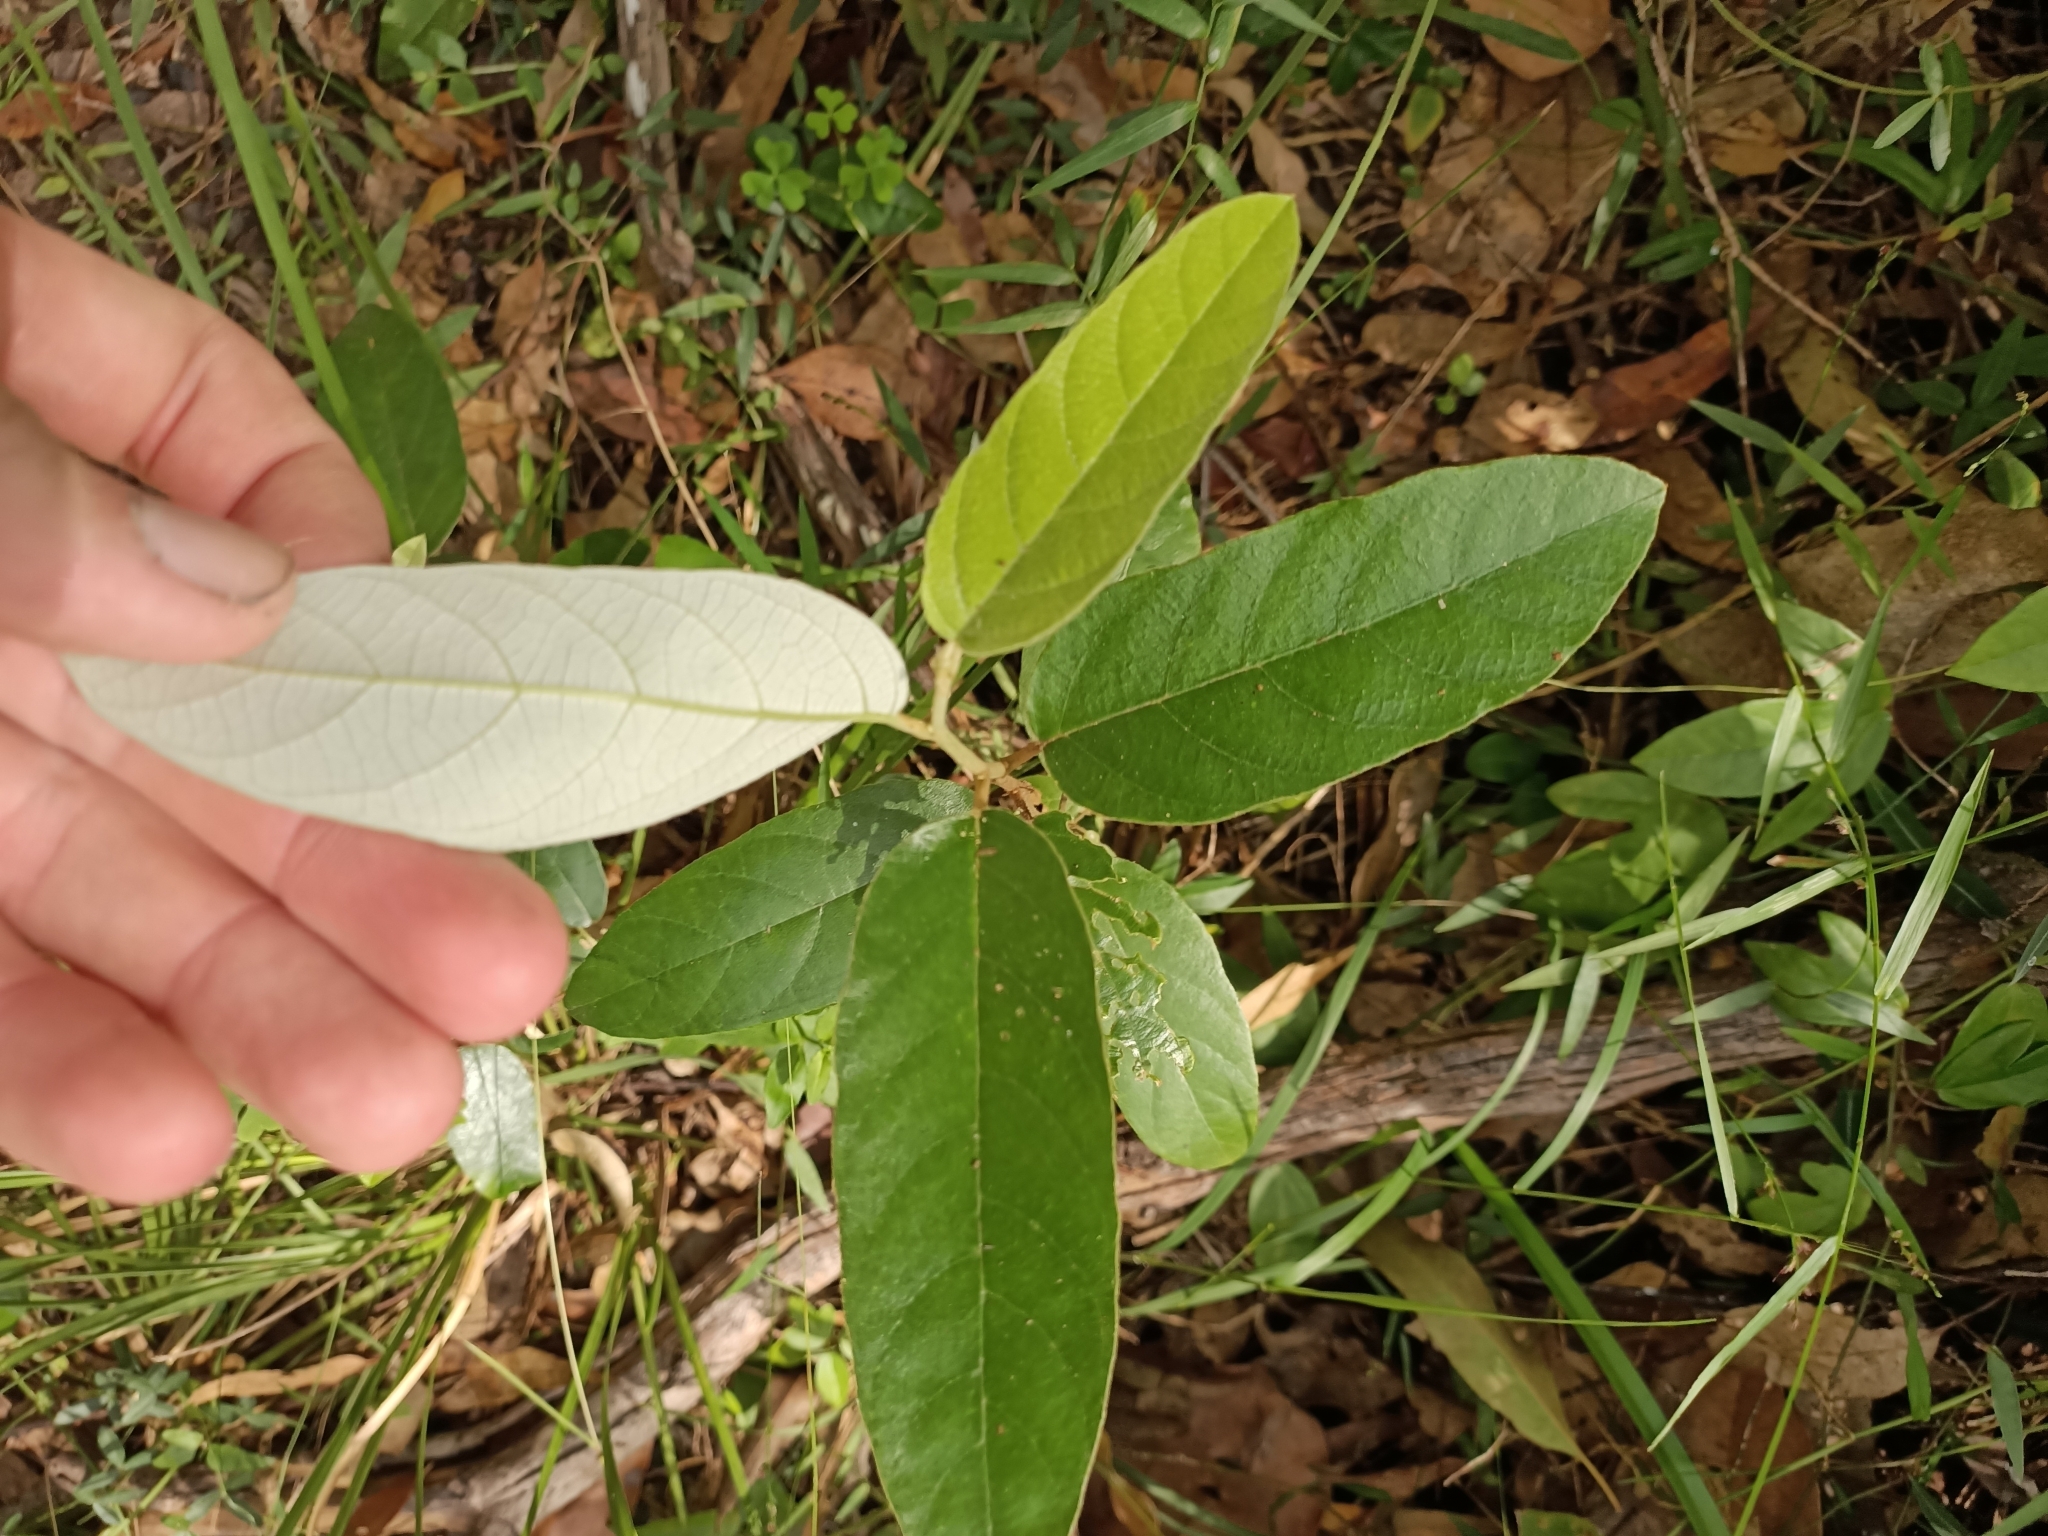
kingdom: Plantae
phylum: Tracheophyta
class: Magnoliopsida
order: Rosales
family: Rhamnaceae
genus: Alphitonia
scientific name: Alphitonia excelsa
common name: Red ash
